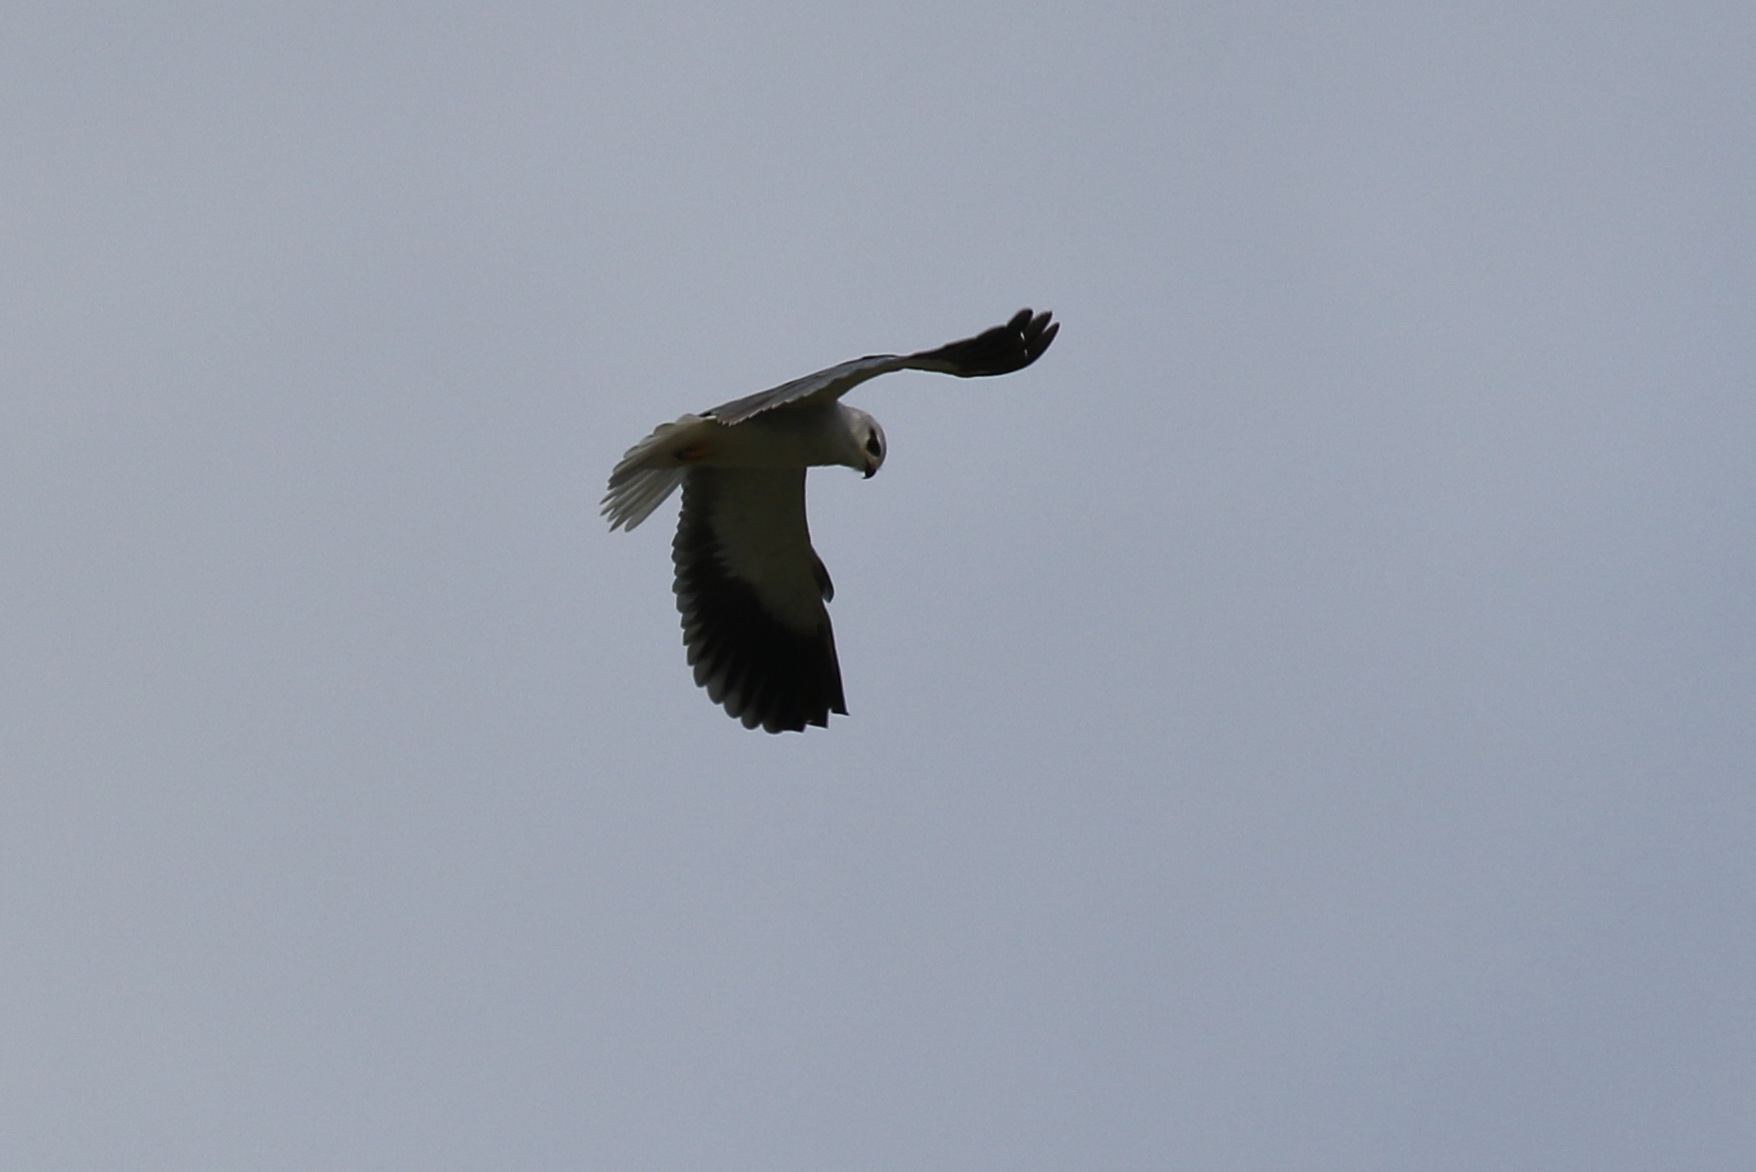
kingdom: Animalia
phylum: Chordata
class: Aves
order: Accipitriformes
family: Accipitridae
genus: Elanus
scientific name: Elanus caeruleus
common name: Black-winged kite
